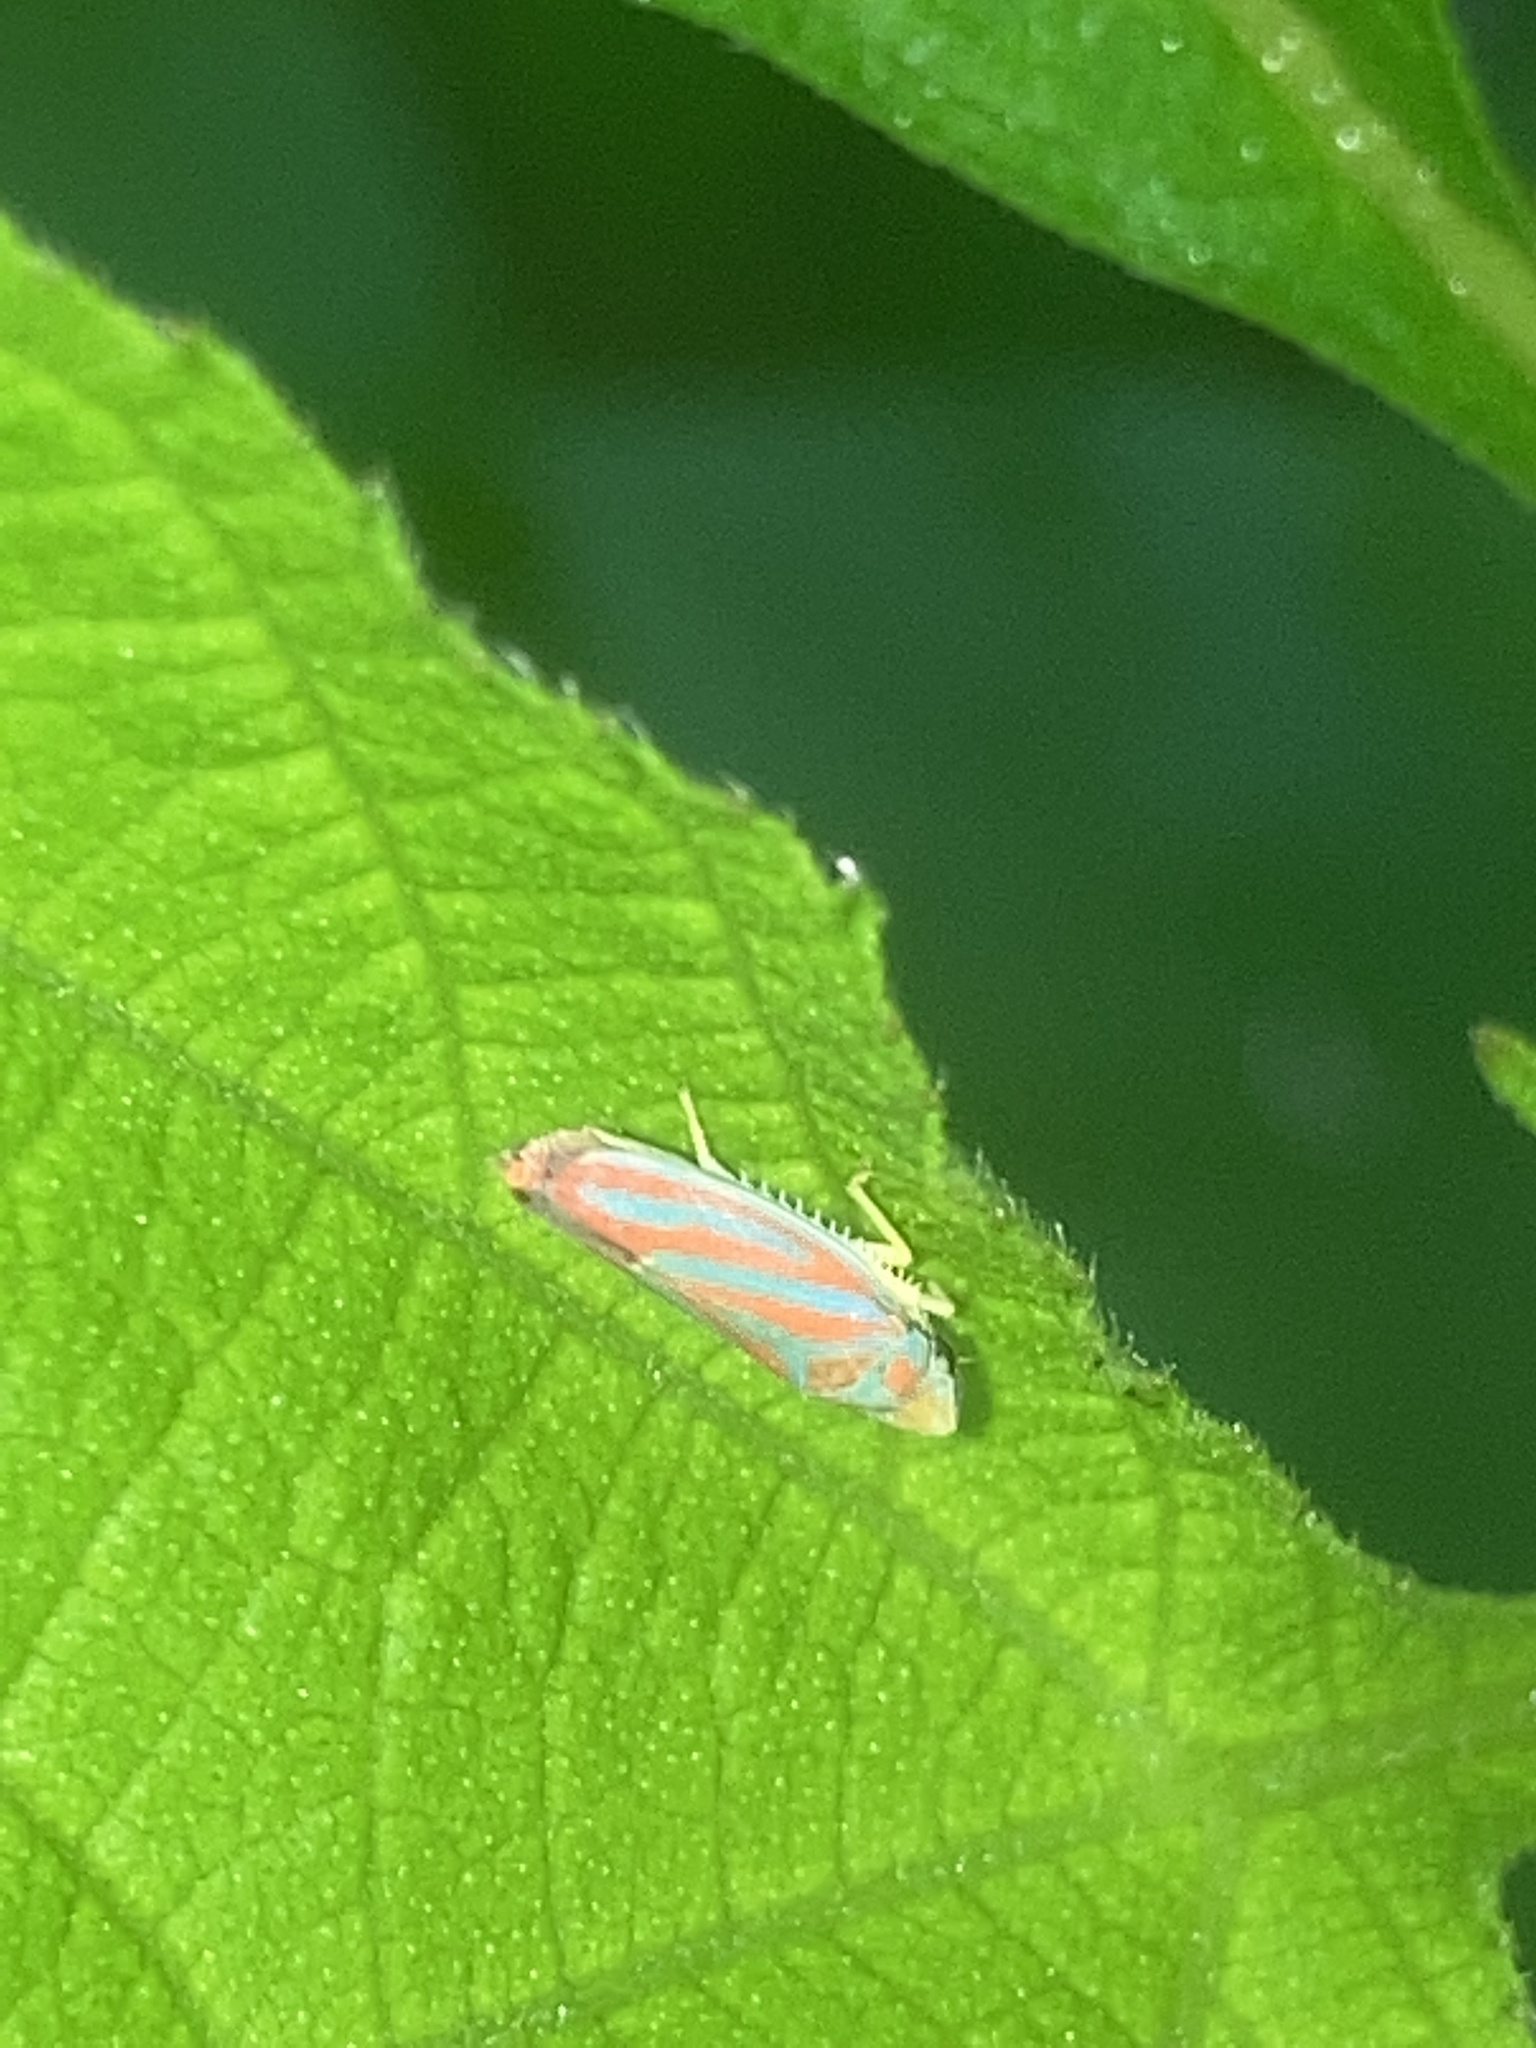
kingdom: Animalia
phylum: Arthropoda
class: Insecta
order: Hemiptera
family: Cicadellidae
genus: Graphocephala
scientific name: Graphocephala coccinea
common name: Candy-striped leafhopper
